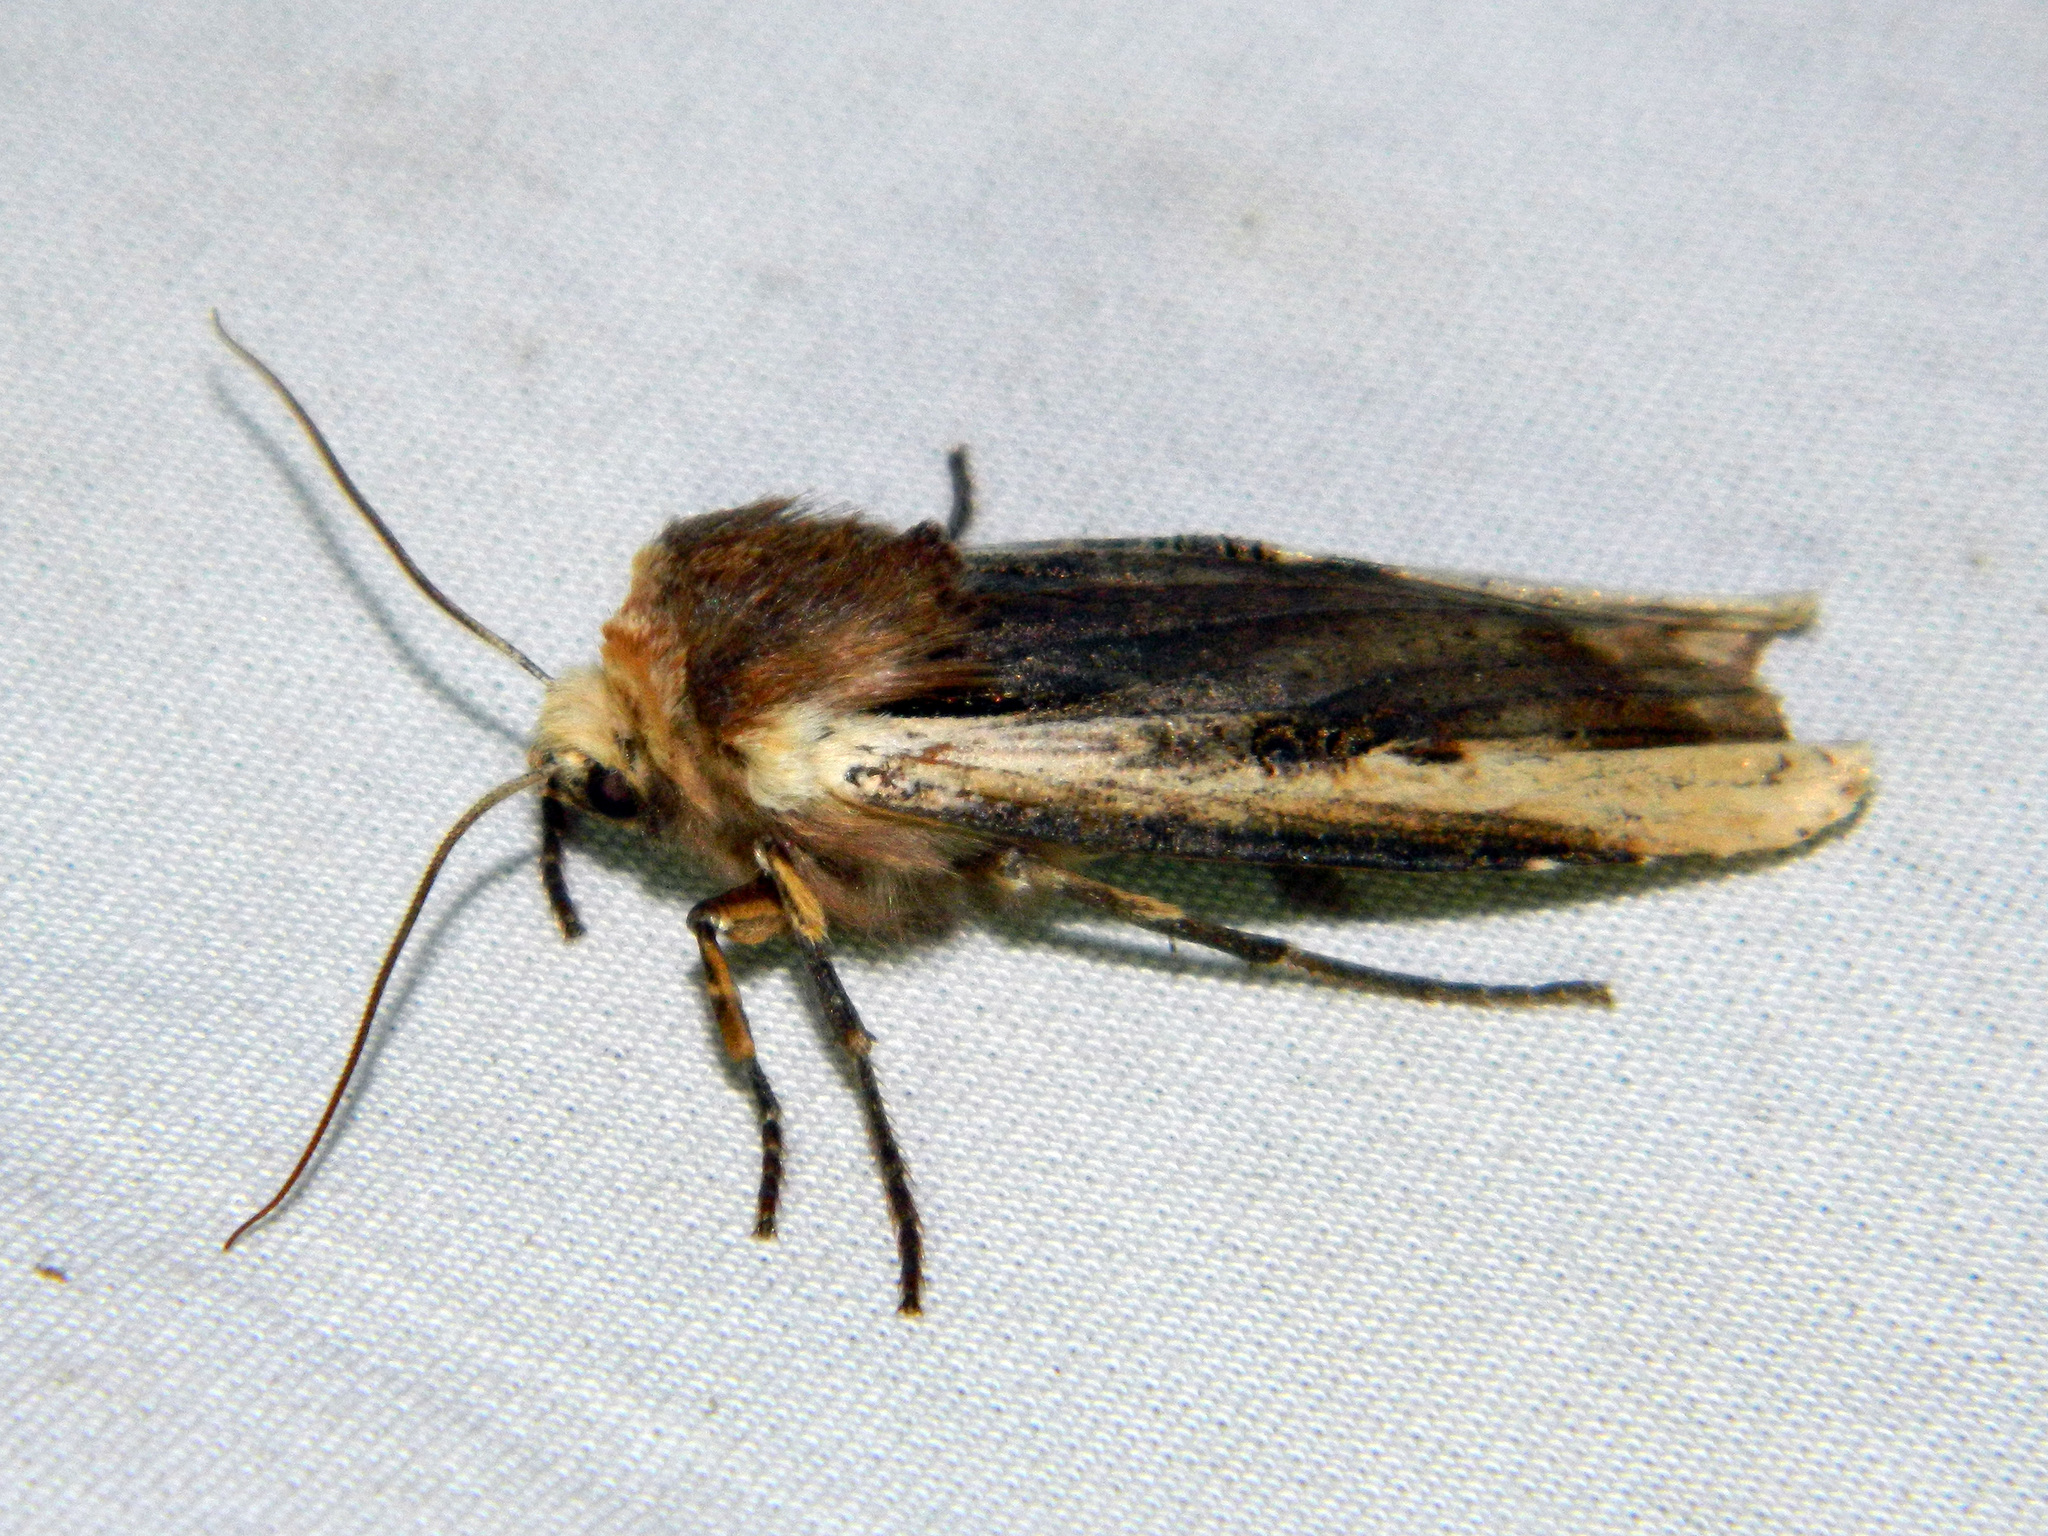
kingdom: Animalia
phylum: Arthropoda
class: Insecta
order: Lepidoptera
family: Noctuidae
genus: Xylena
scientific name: Xylena curvimacula
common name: Dot-and-dash swordgrass moth
